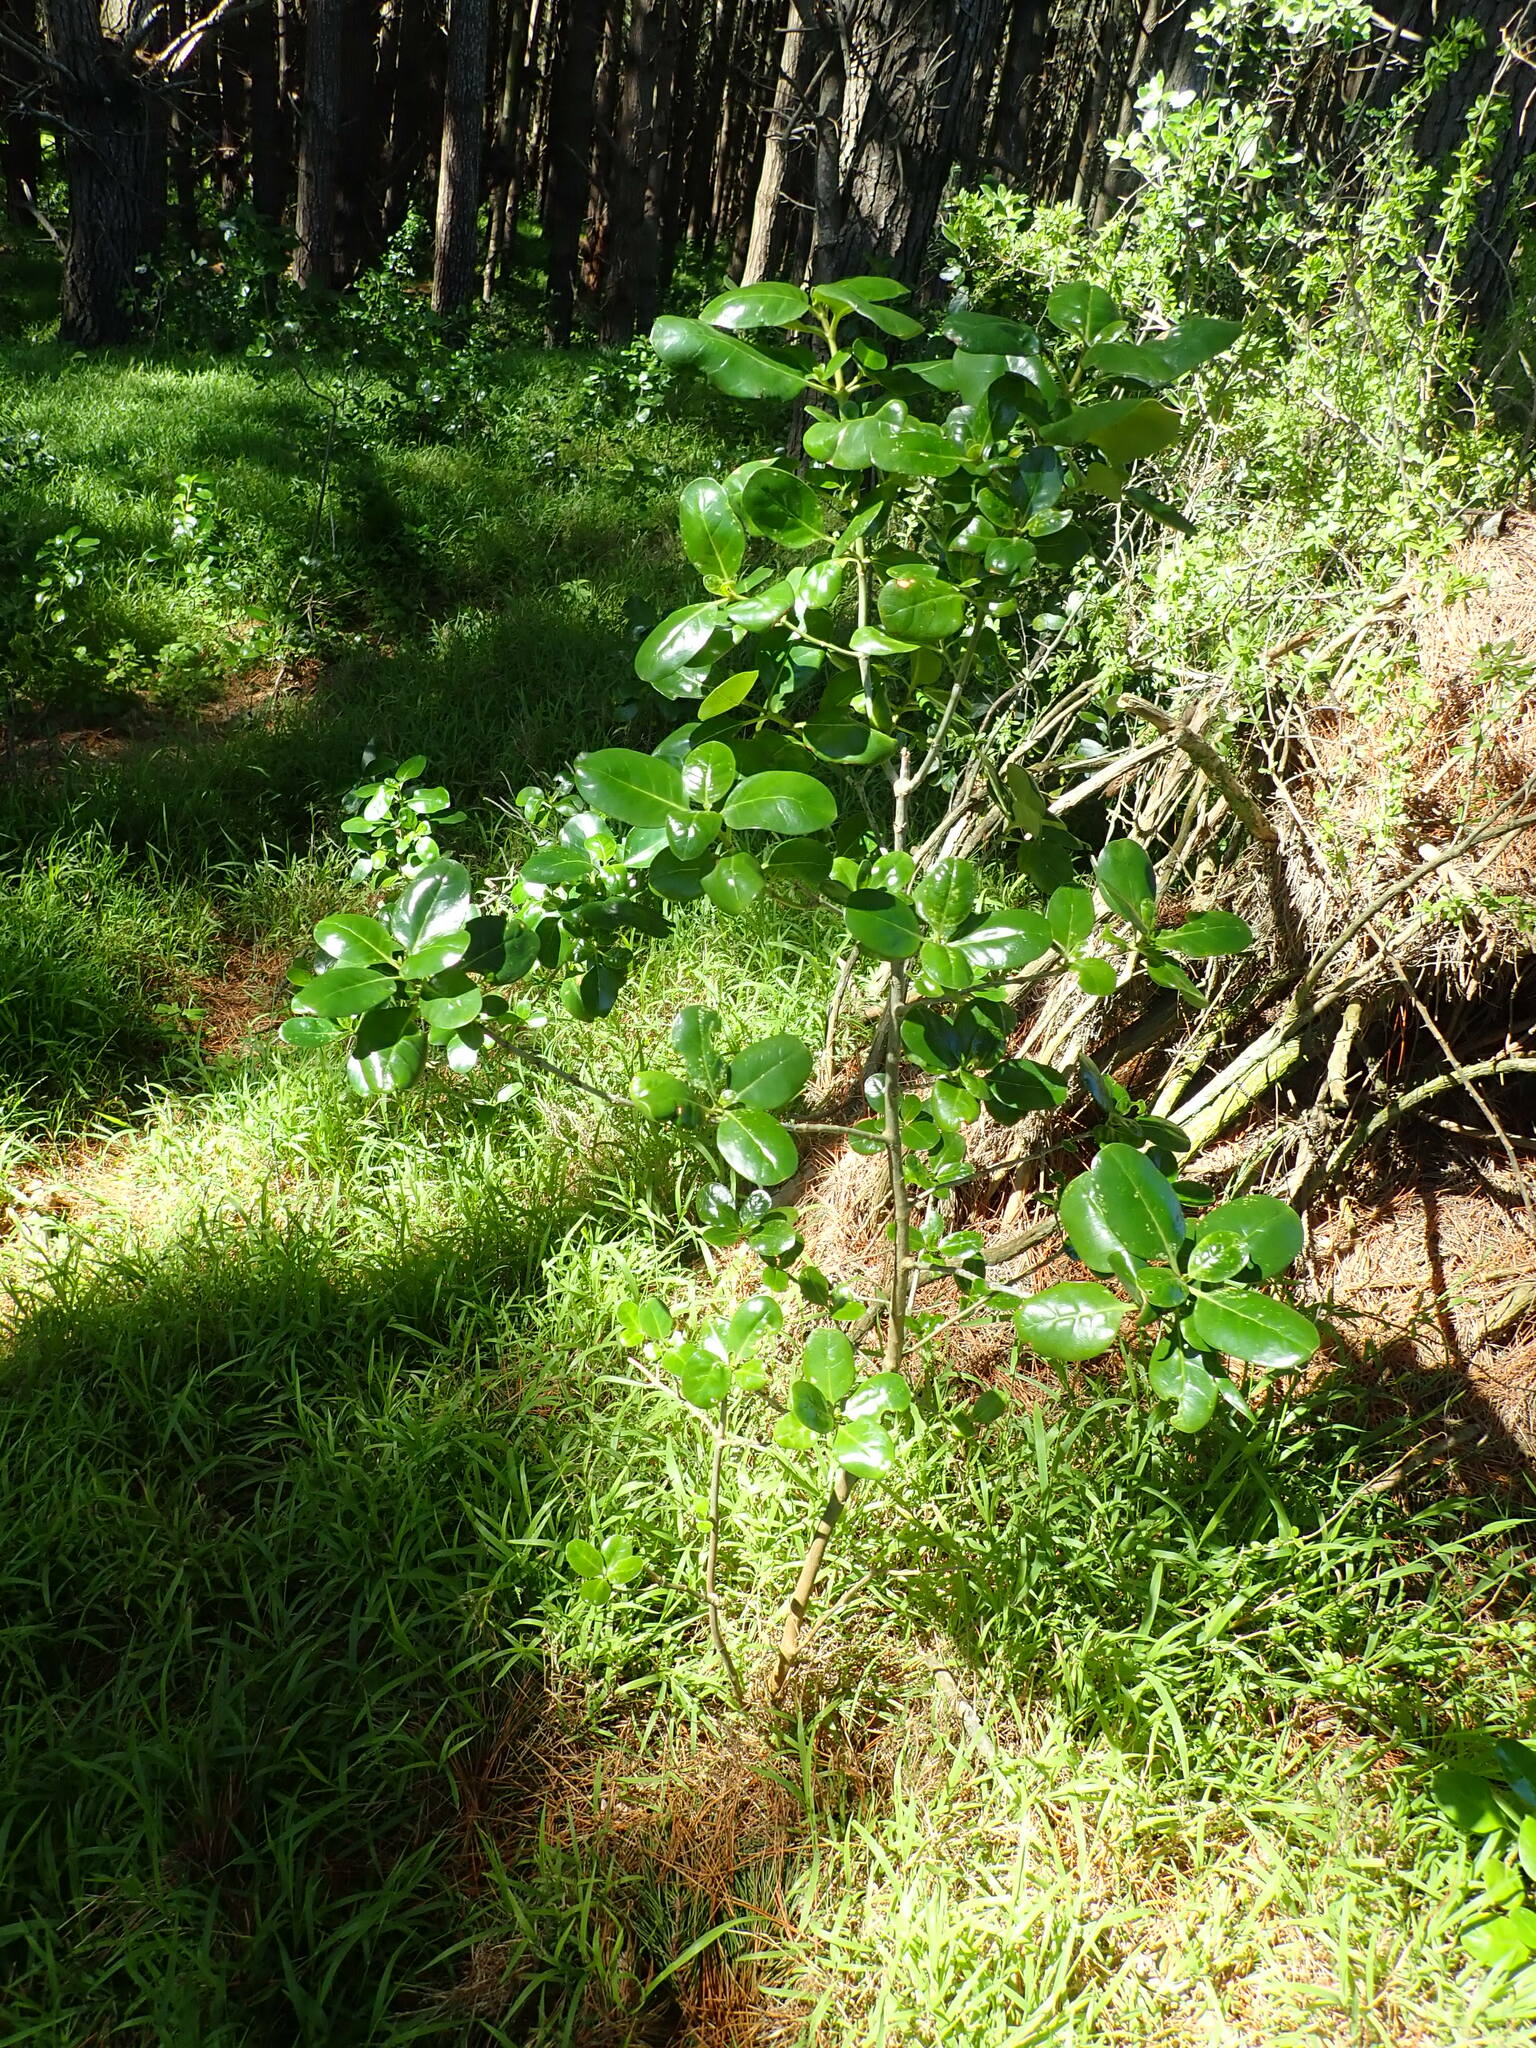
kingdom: Plantae
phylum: Tracheophyta
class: Magnoliopsida
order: Gentianales
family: Rubiaceae
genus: Coprosma
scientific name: Coprosma repens
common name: Tree bedstraw
